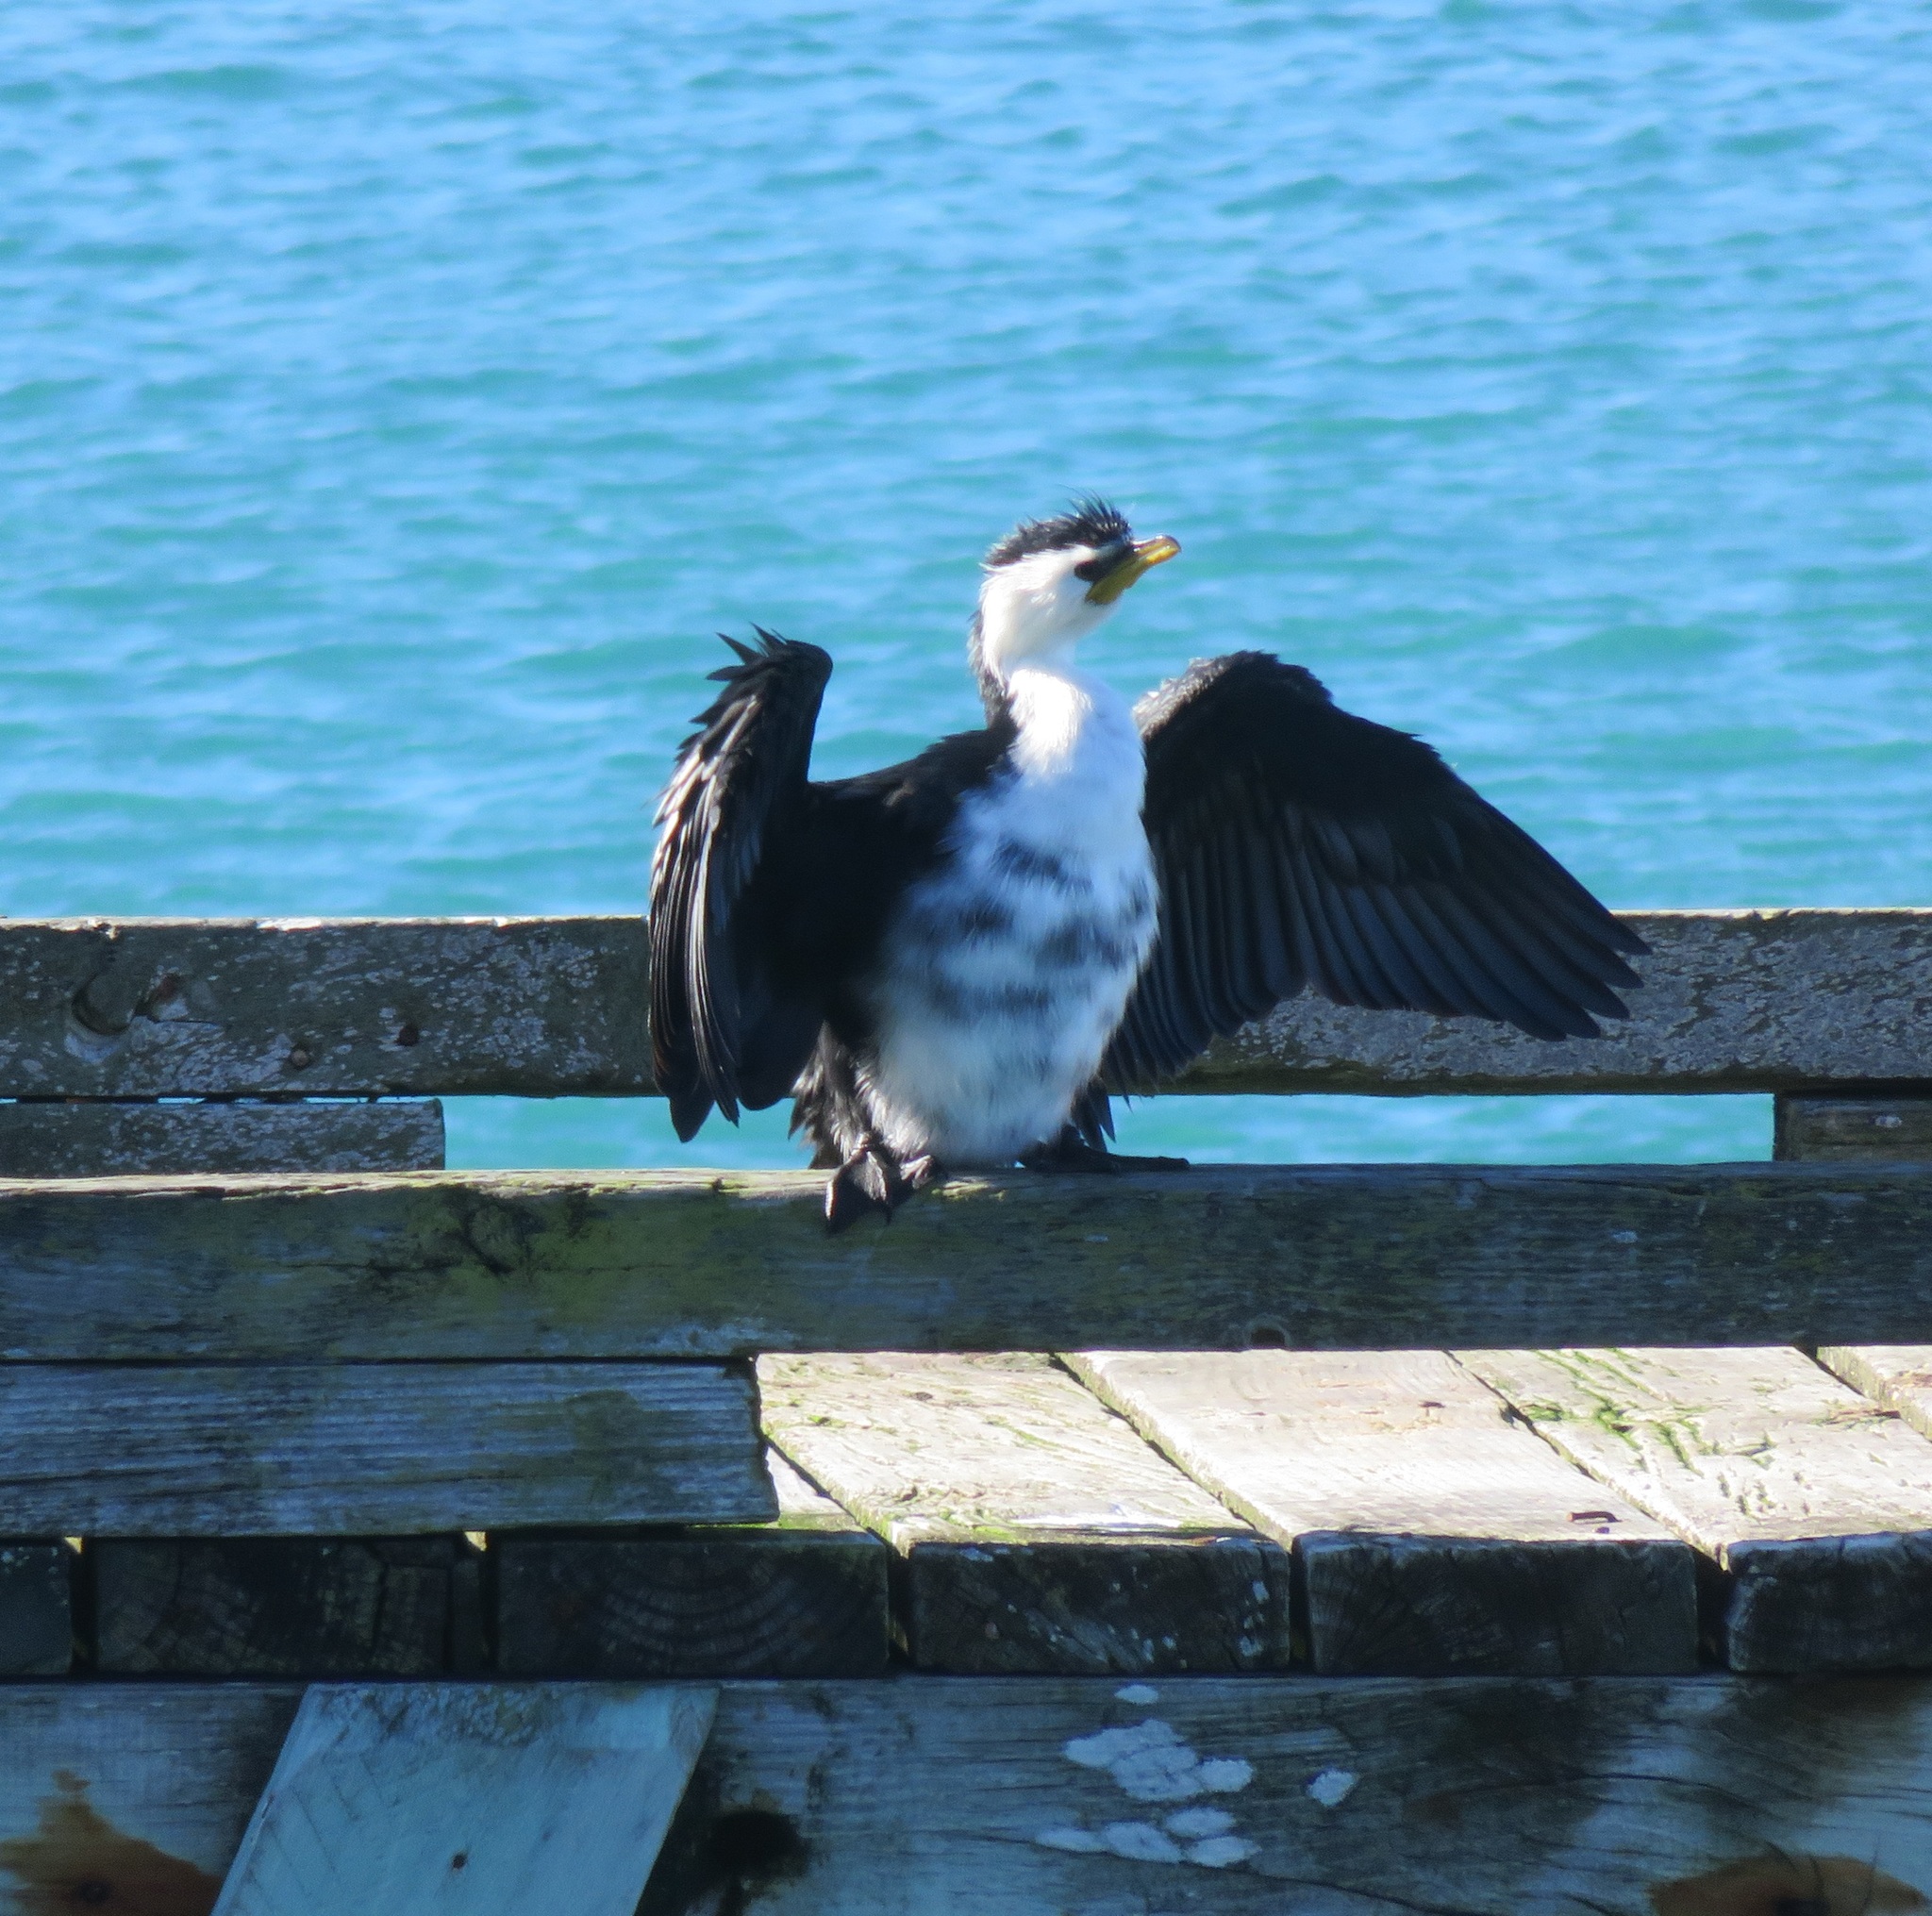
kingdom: Animalia
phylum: Chordata
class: Aves
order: Suliformes
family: Phalacrocoracidae
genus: Microcarbo
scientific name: Microcarbo melanoleucos
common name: Little pied cormorant
